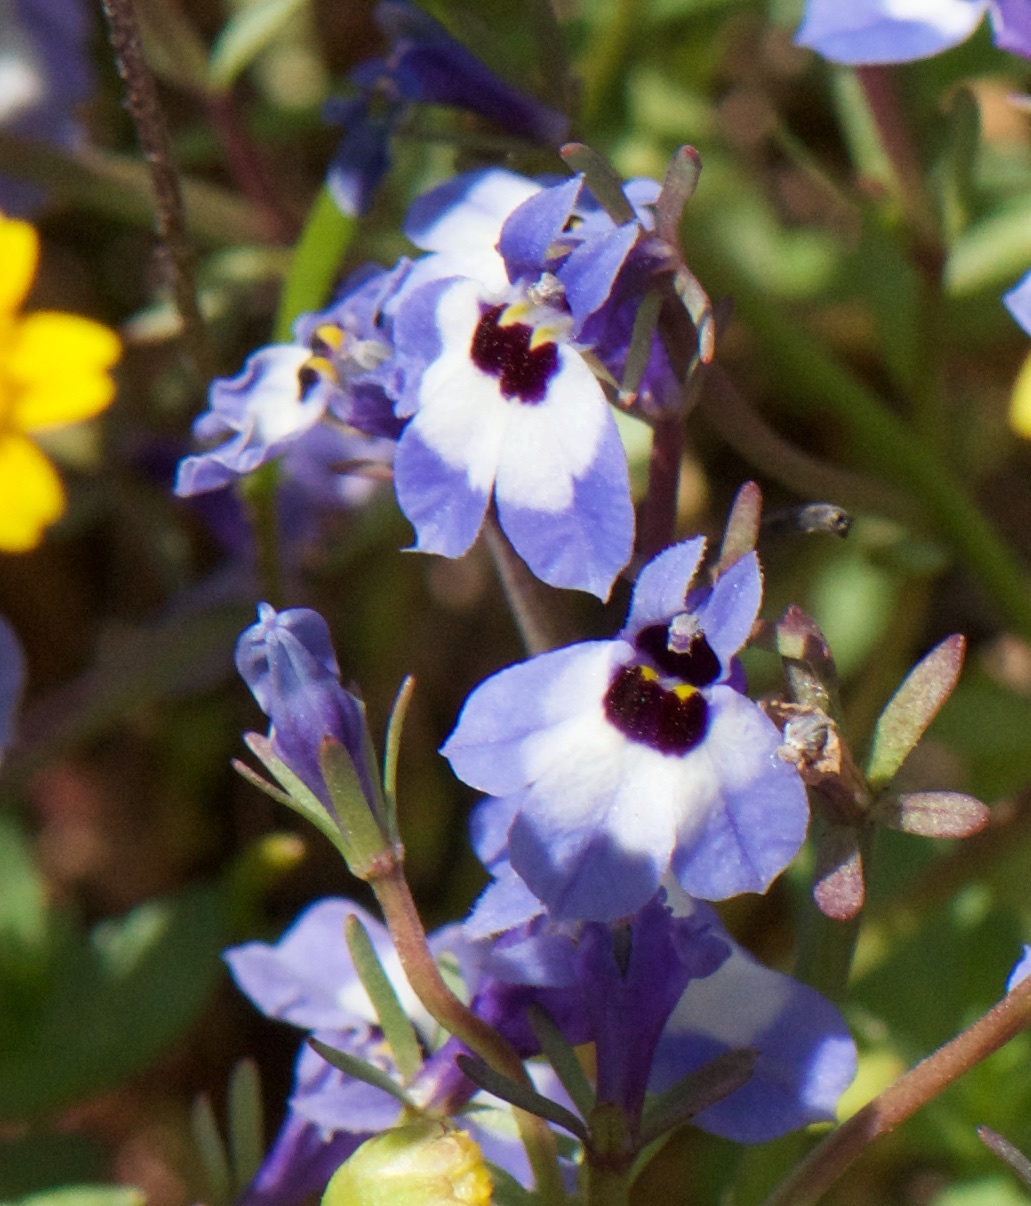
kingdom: Plantae
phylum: Tracheophyta
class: Magnoliopsida
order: Asterales
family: Campanulaceae
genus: Downingia
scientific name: Downingia concolor
